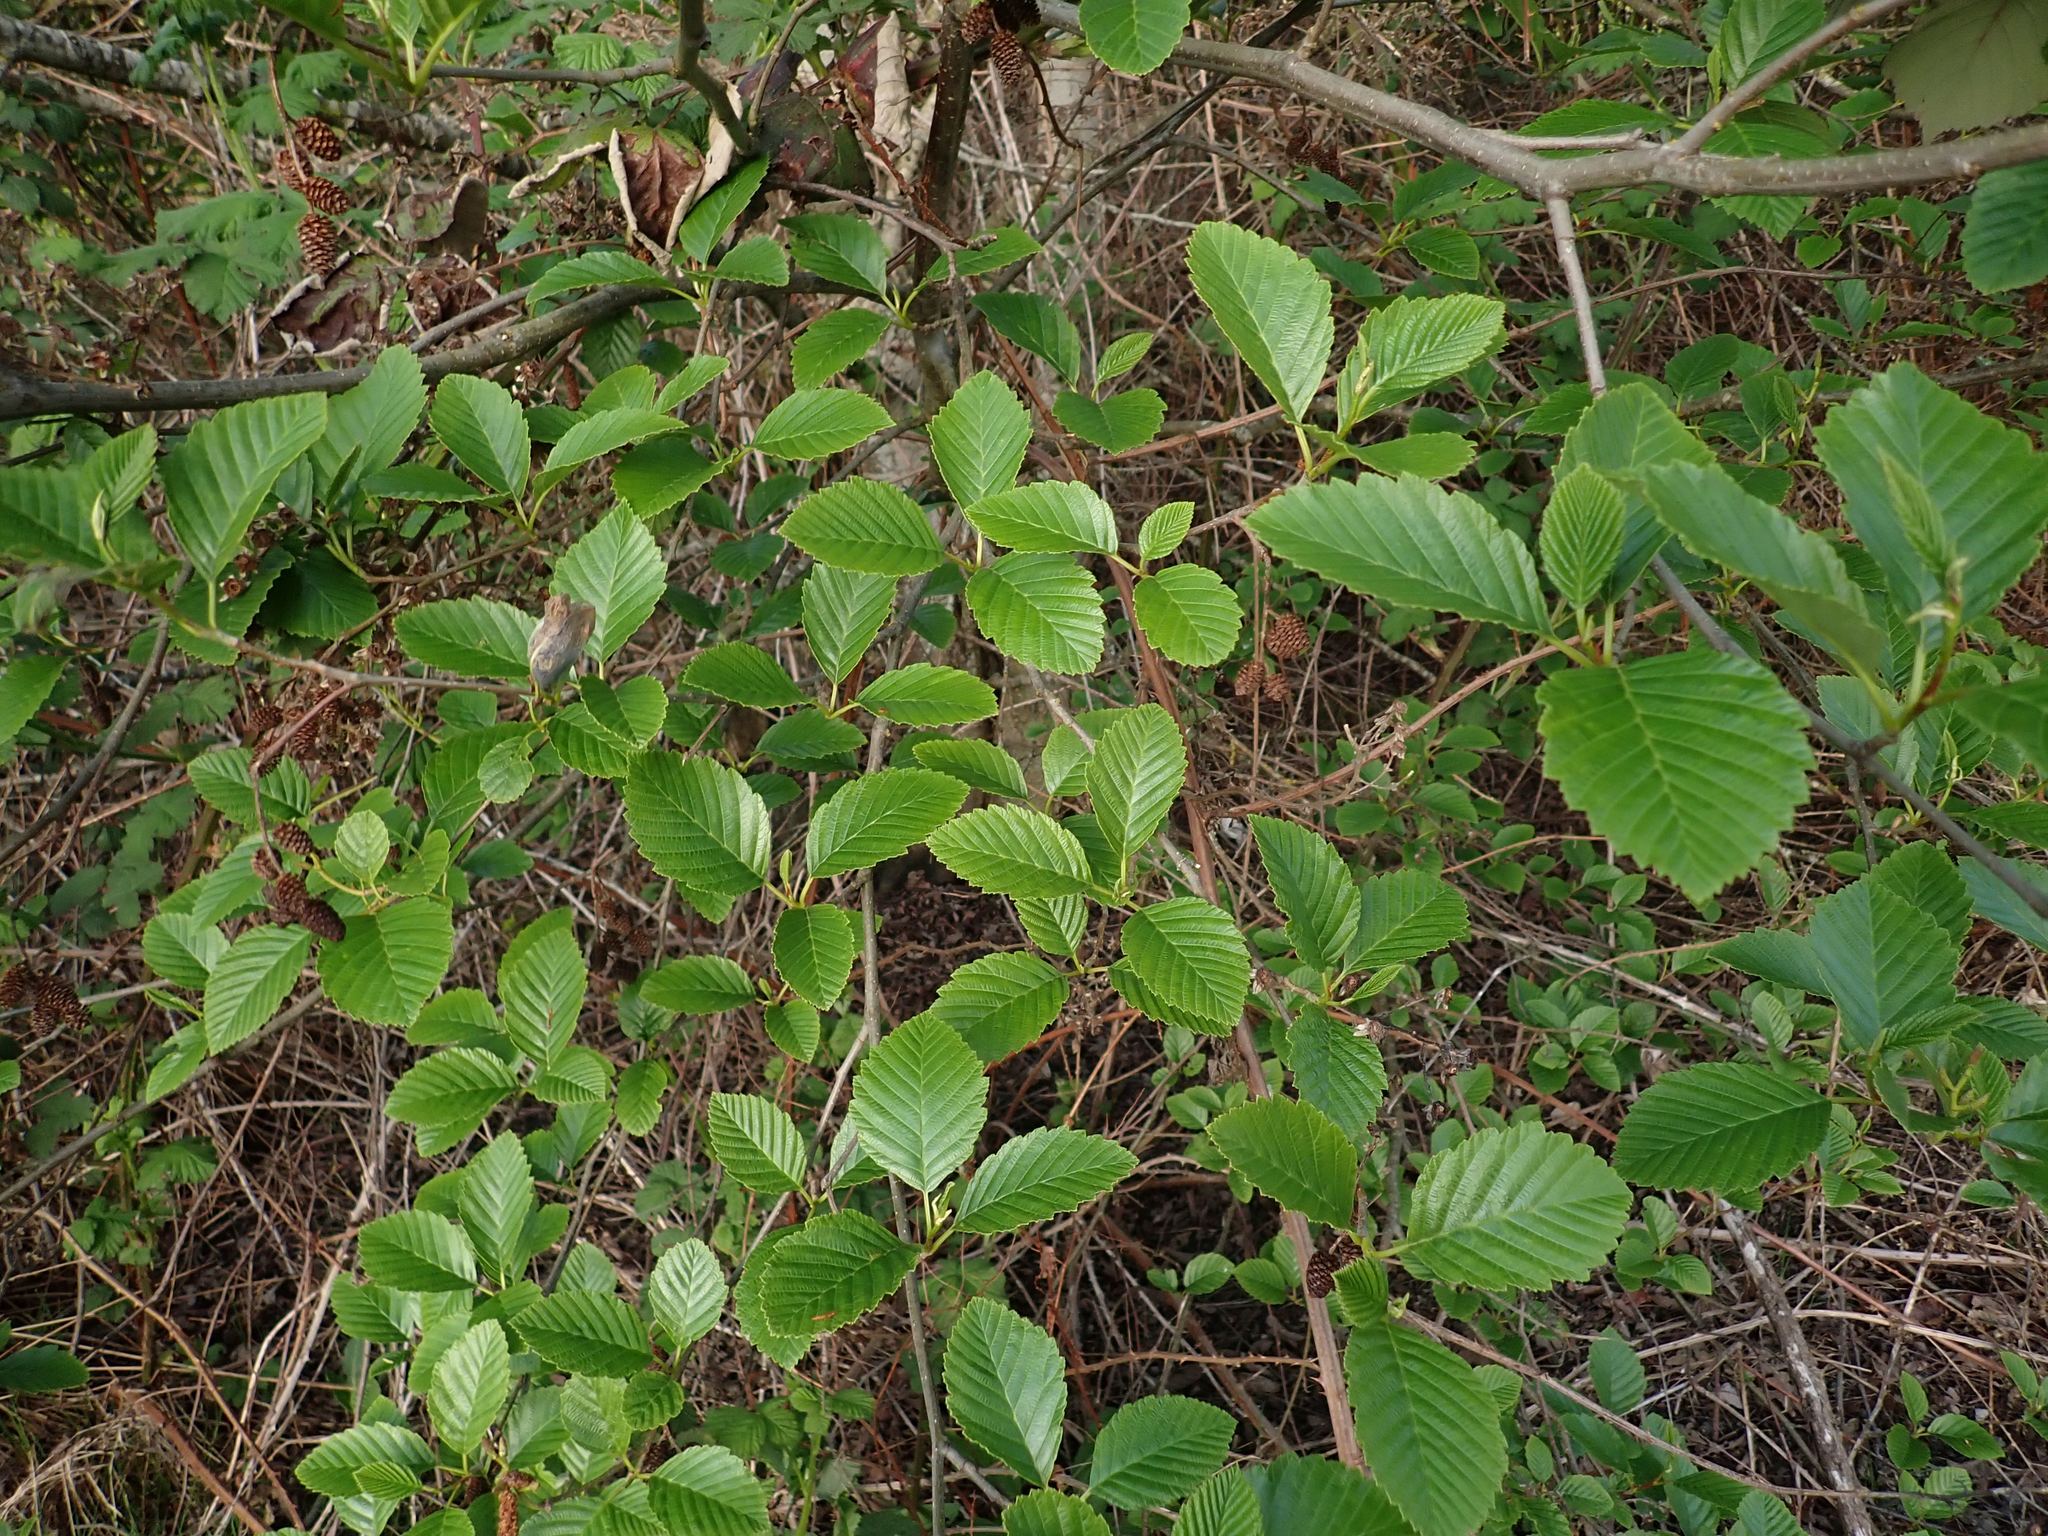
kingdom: Plantae
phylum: Tracheophyta
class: Magnoliopsida
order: Fagales
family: Betulaceae
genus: Alnus
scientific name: Alnus rubra
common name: Red alder
